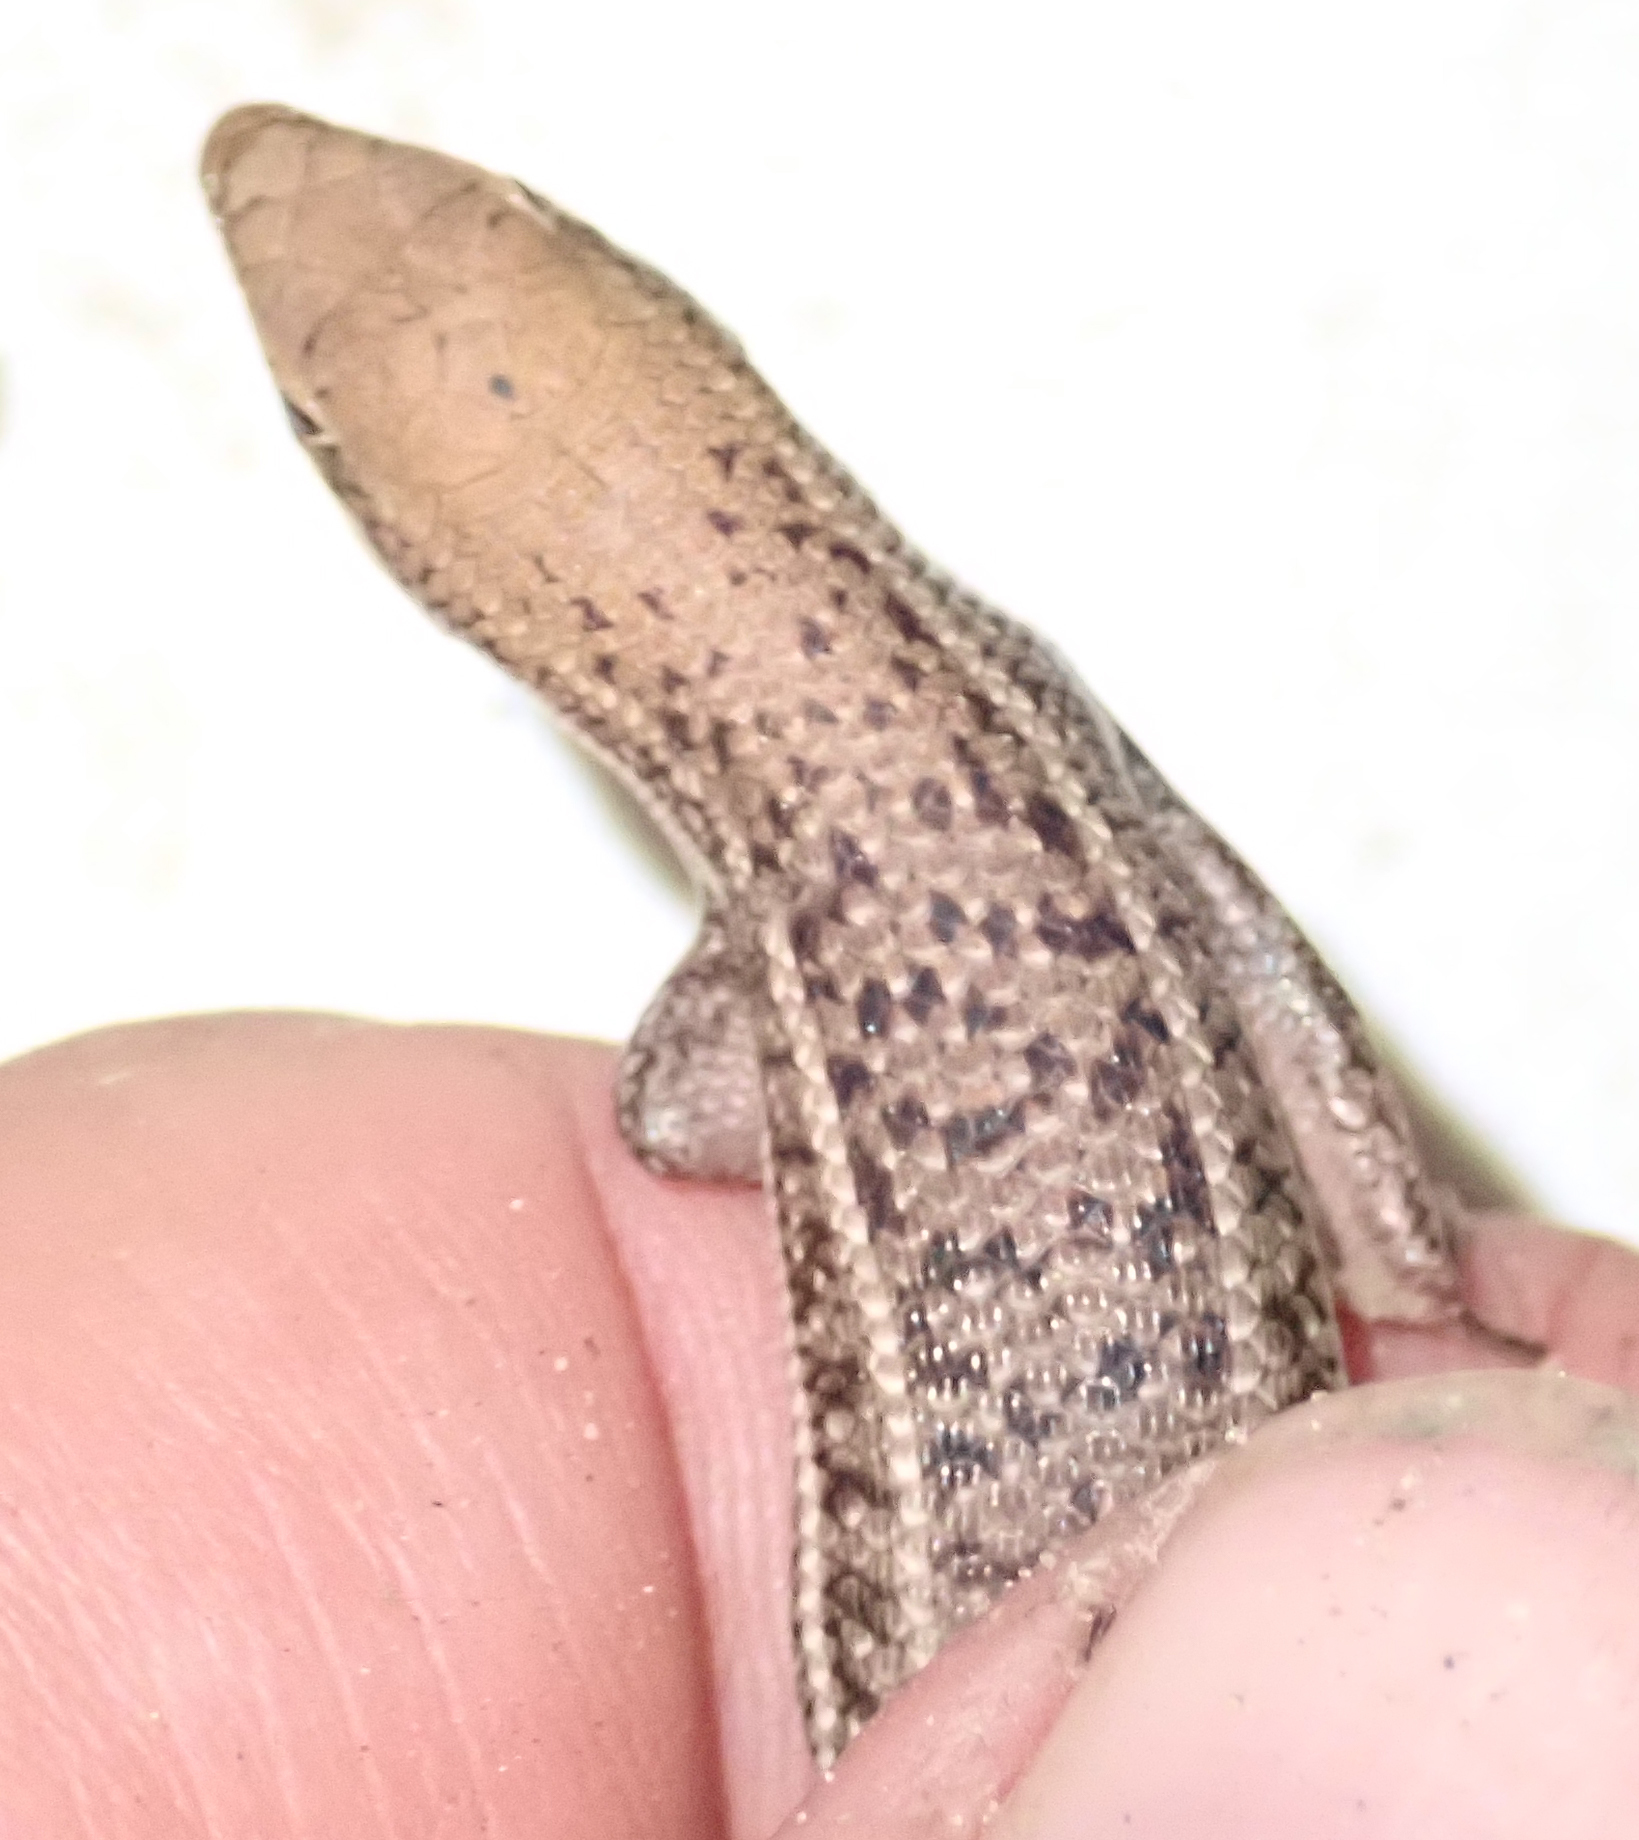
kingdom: Animalia
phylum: Chordata
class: Squamata
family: Scincidae
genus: Trachylepis
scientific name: Trachylepis varia
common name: Eastern variable skink
